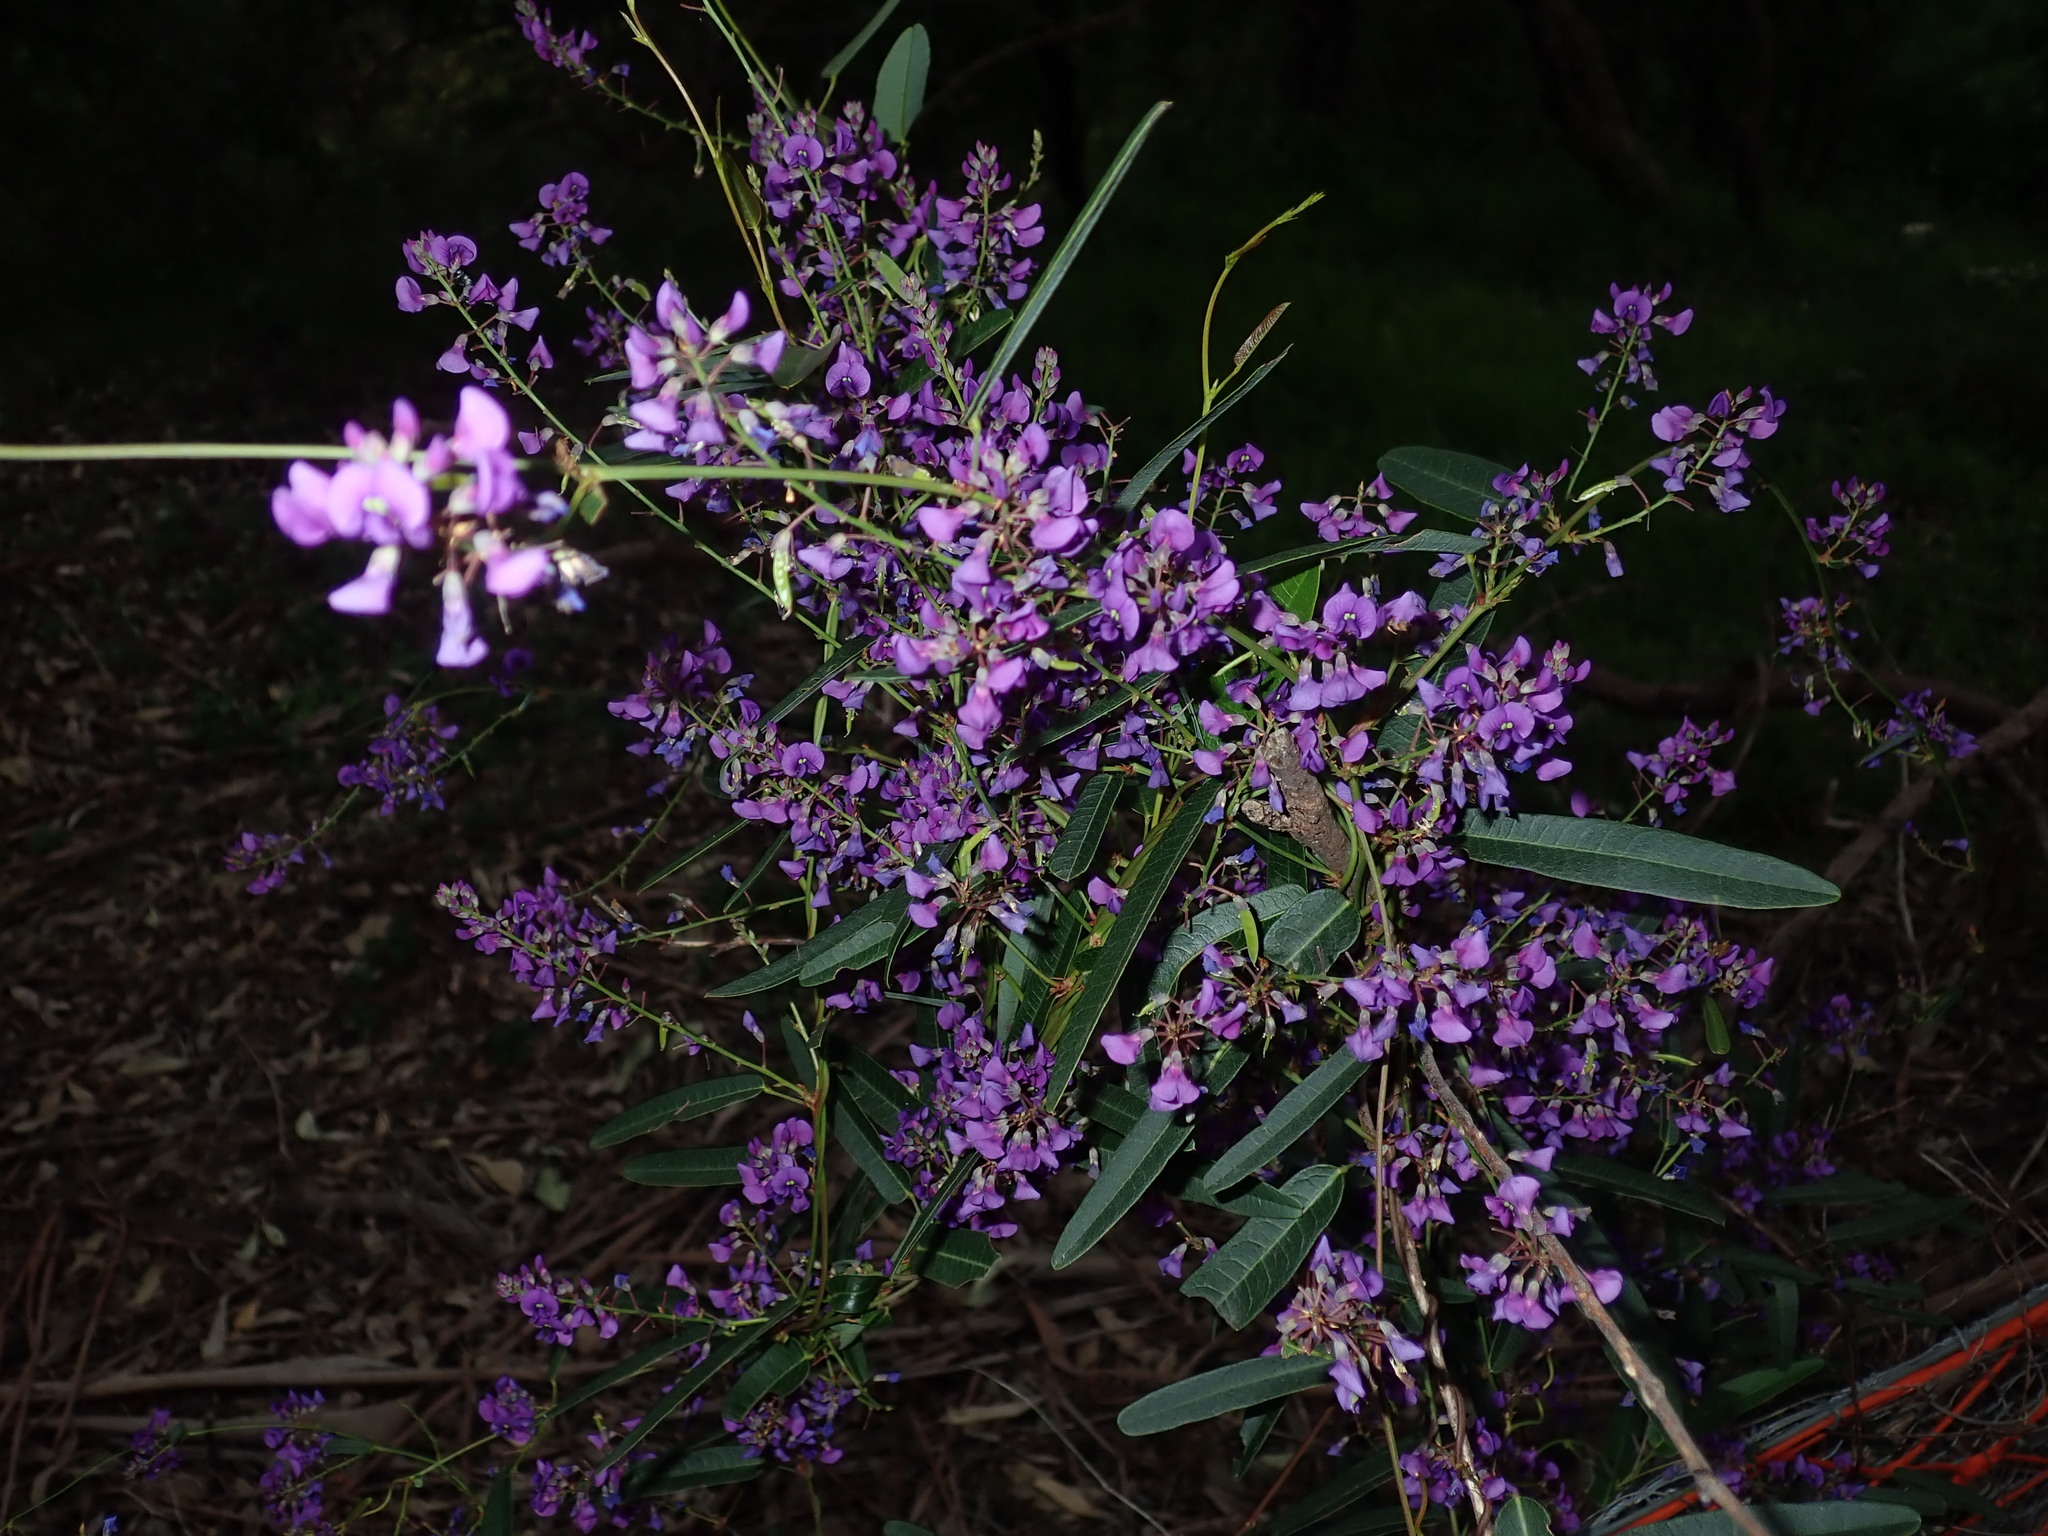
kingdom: Plantae
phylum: Tracheophyta
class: Magnoliopsida
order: Fabales
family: Fabaceae
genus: Hardenbergia
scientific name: Hardenbergia violacea
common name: Coral-pea
